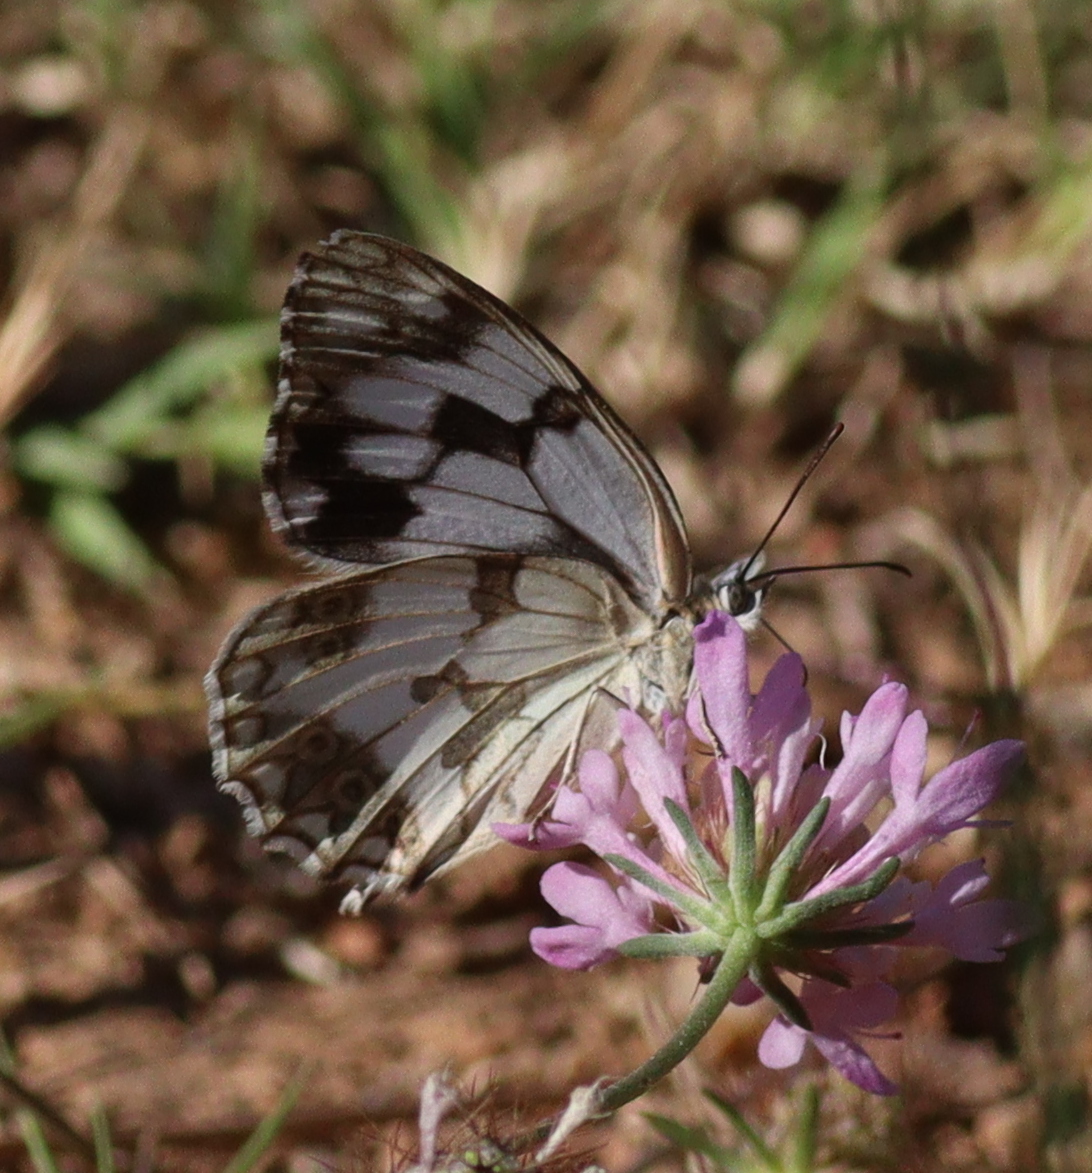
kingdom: Animalia
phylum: Arthropoda
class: Insecta
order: Lepidoptera
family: Nymphalidae
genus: Melanargia
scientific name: Melanargia lachesis
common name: Iberian marbled white
